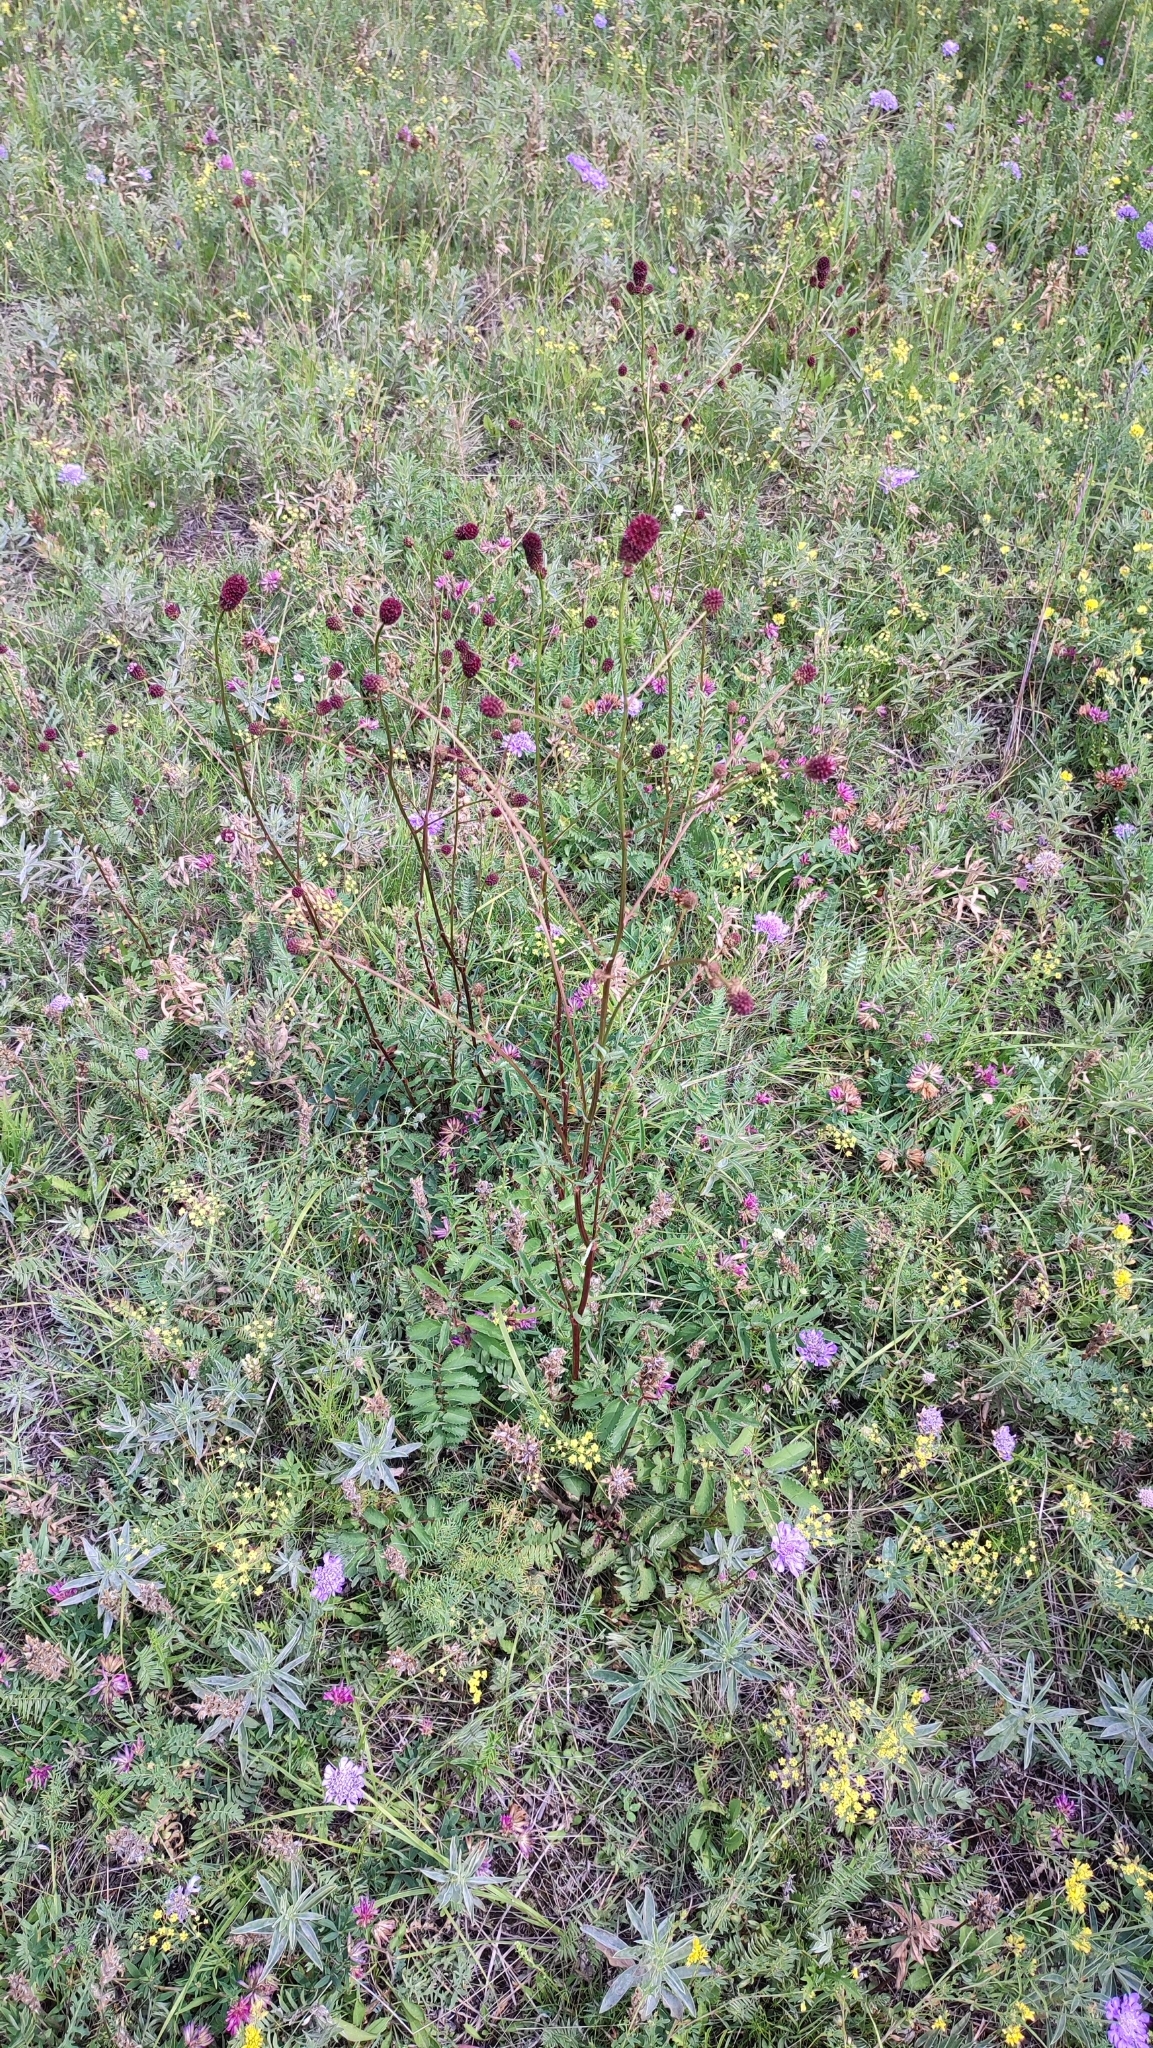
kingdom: Plantae
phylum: Tracheophyta
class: Magnoliopsida
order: Rosales
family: Rosaceae
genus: Sanguisorba
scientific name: Sanguisorba officinalis
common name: Great burnet
